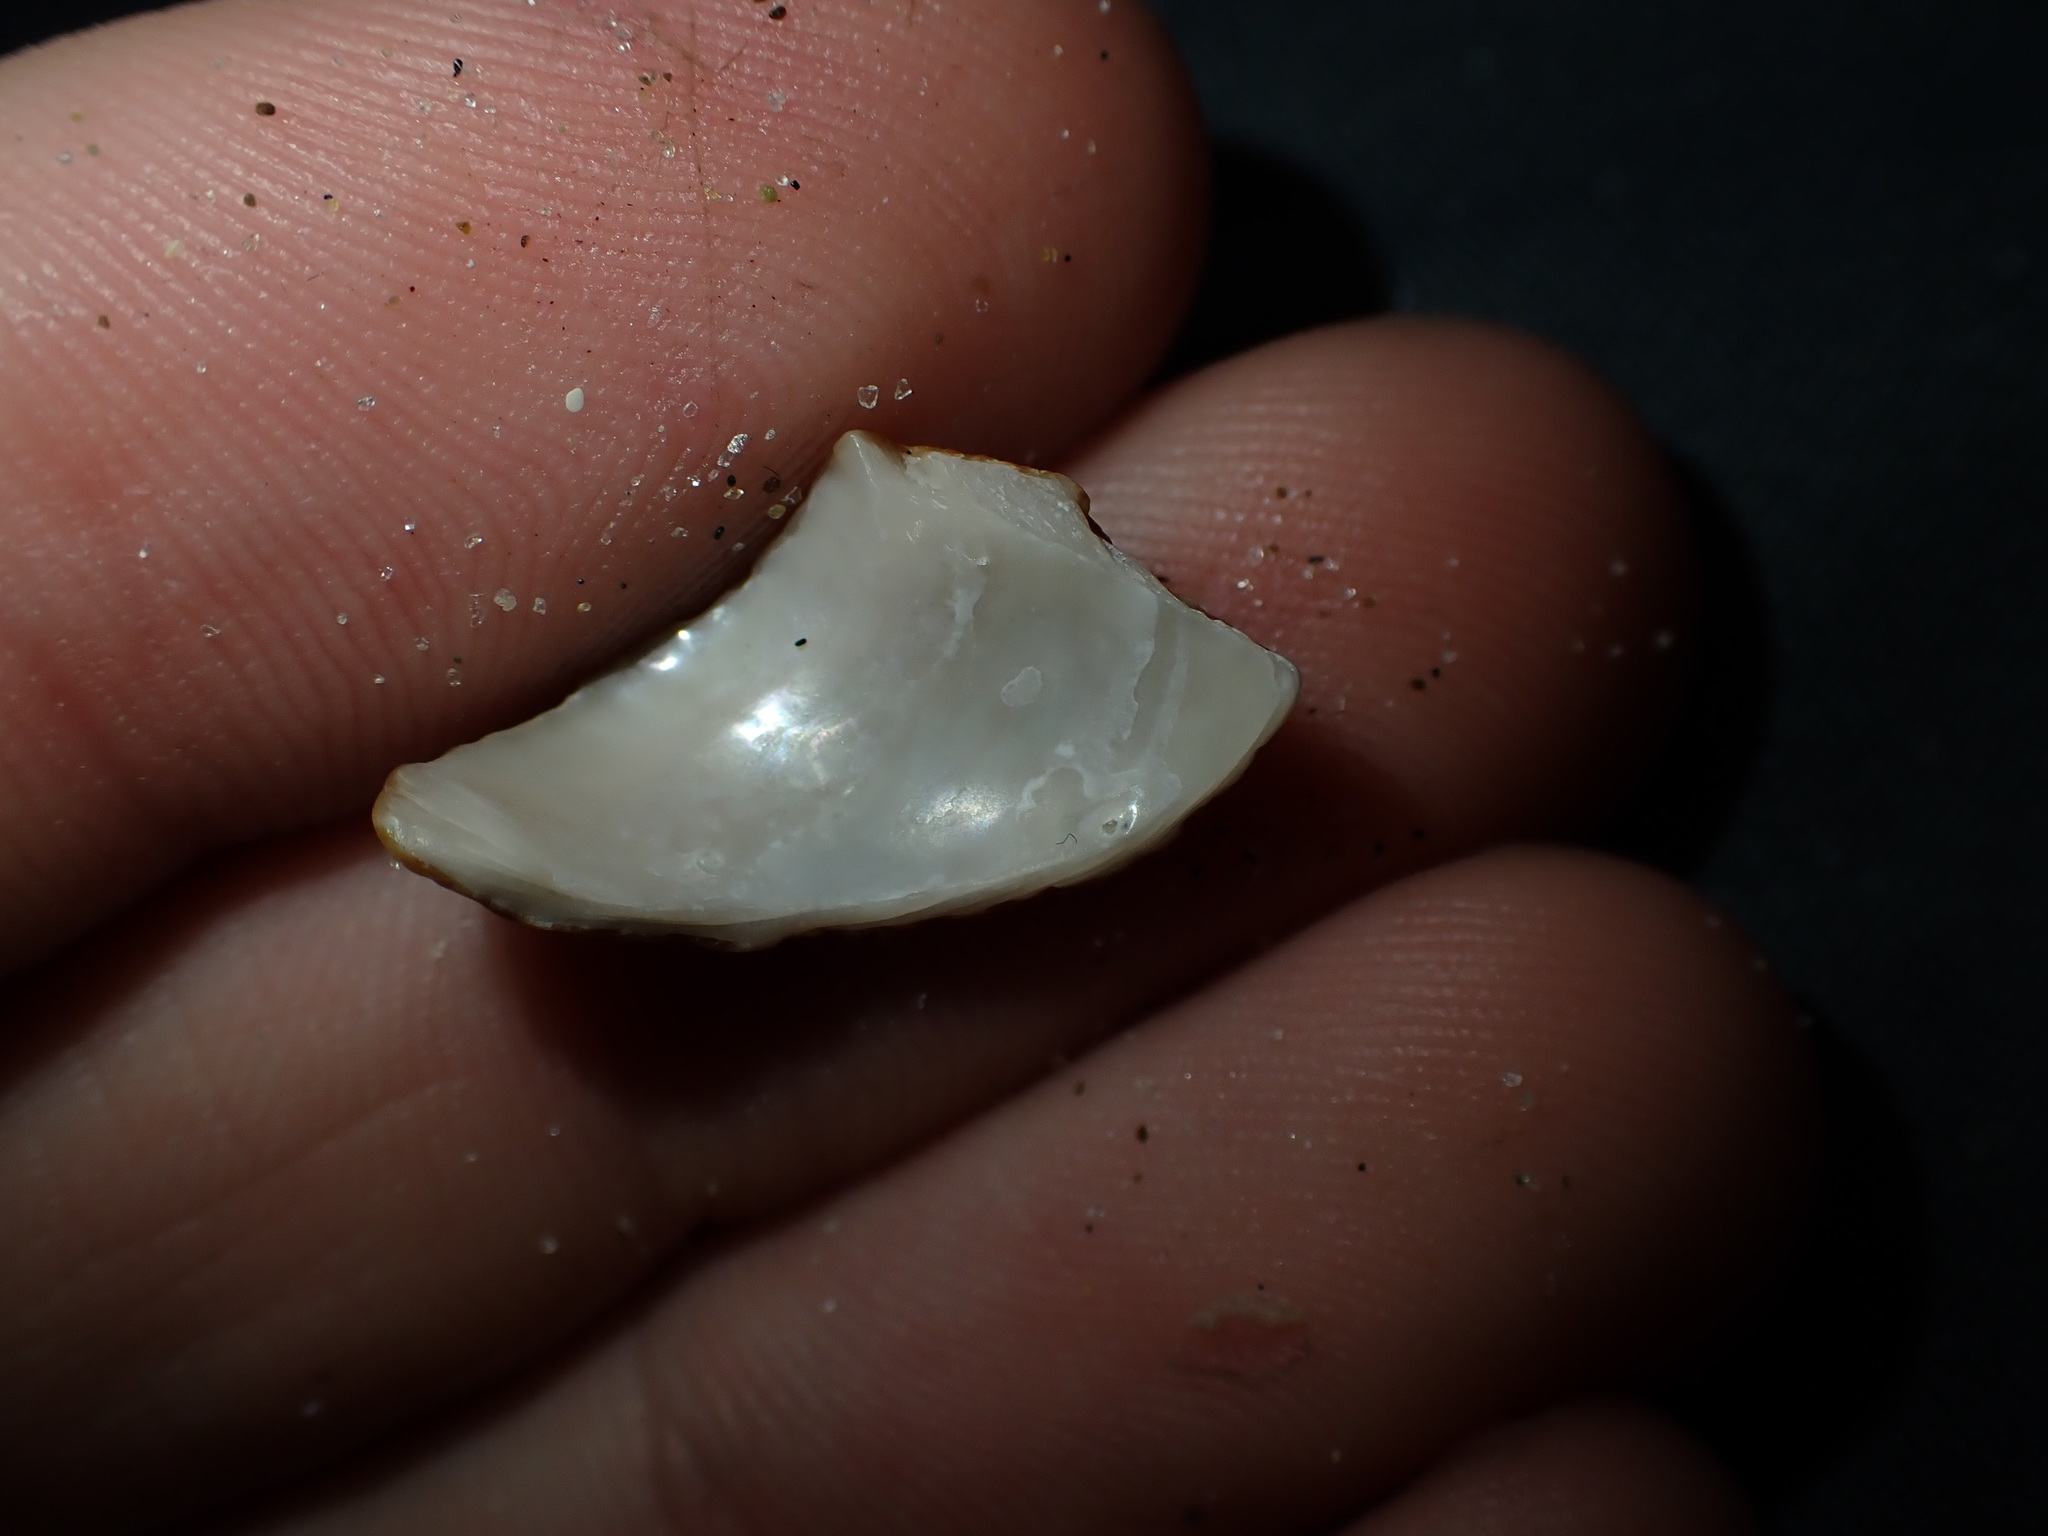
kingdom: Animalia
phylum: Mollusca
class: Gastropoda
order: Trochida
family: Calliostomatidae
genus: Maurea
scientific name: Maurea punctulata
